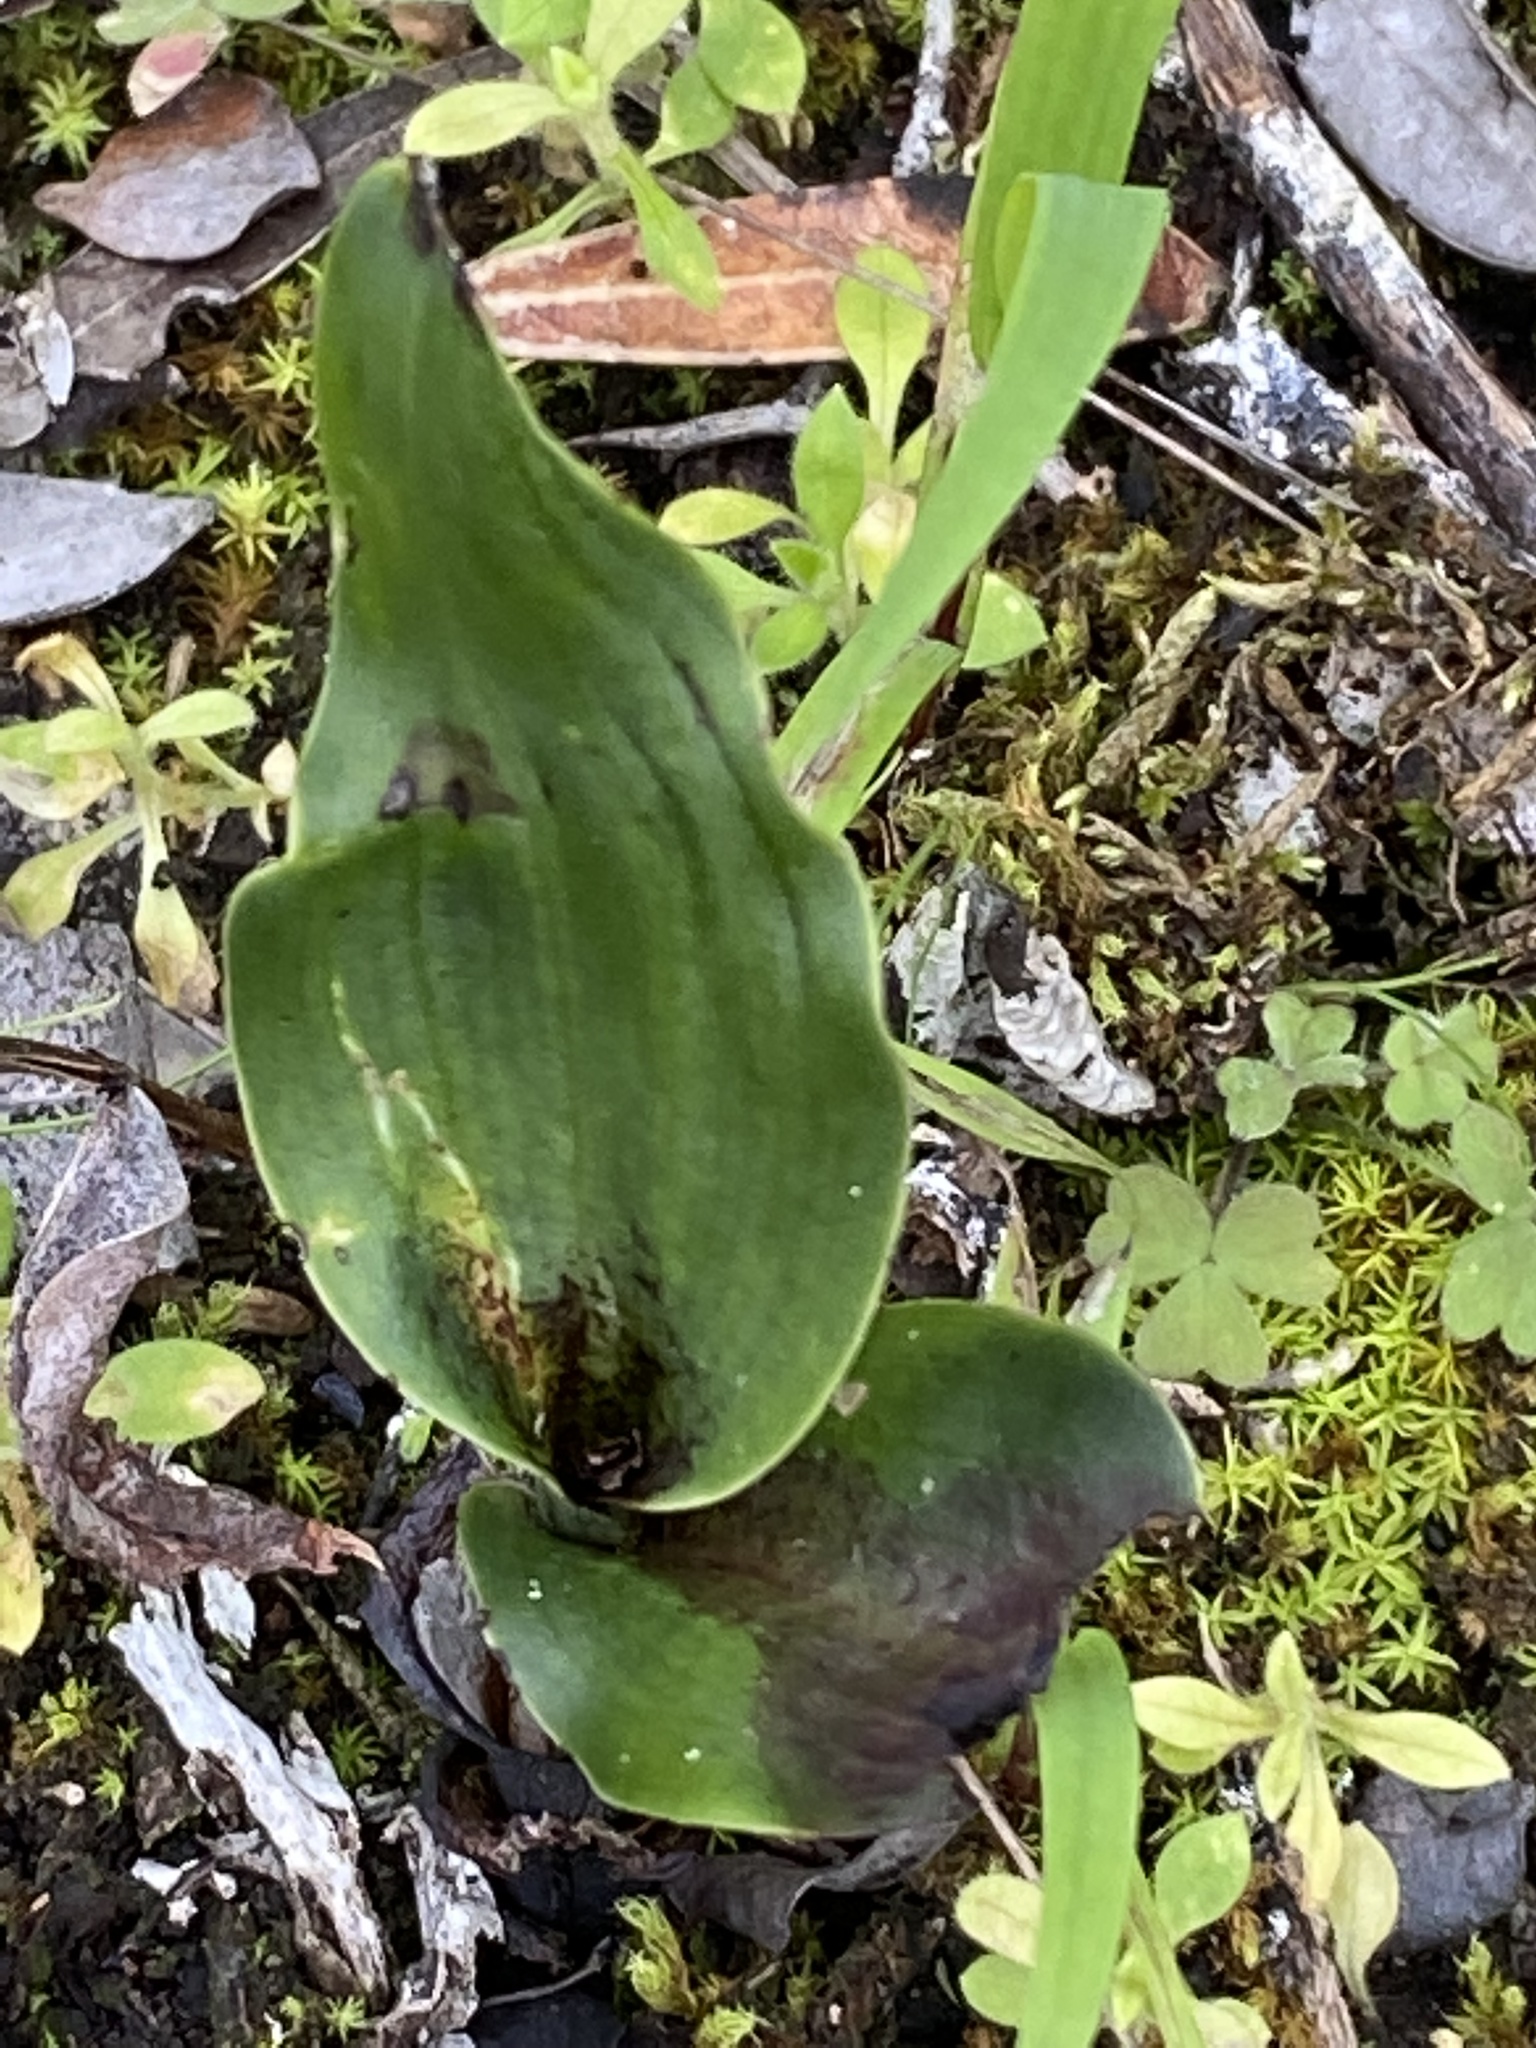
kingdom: Plantae
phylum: Tracheophyta
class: Liliopsida
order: Asparagales
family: Orchidaceae
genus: Bonatea
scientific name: Bonatea speciosa
